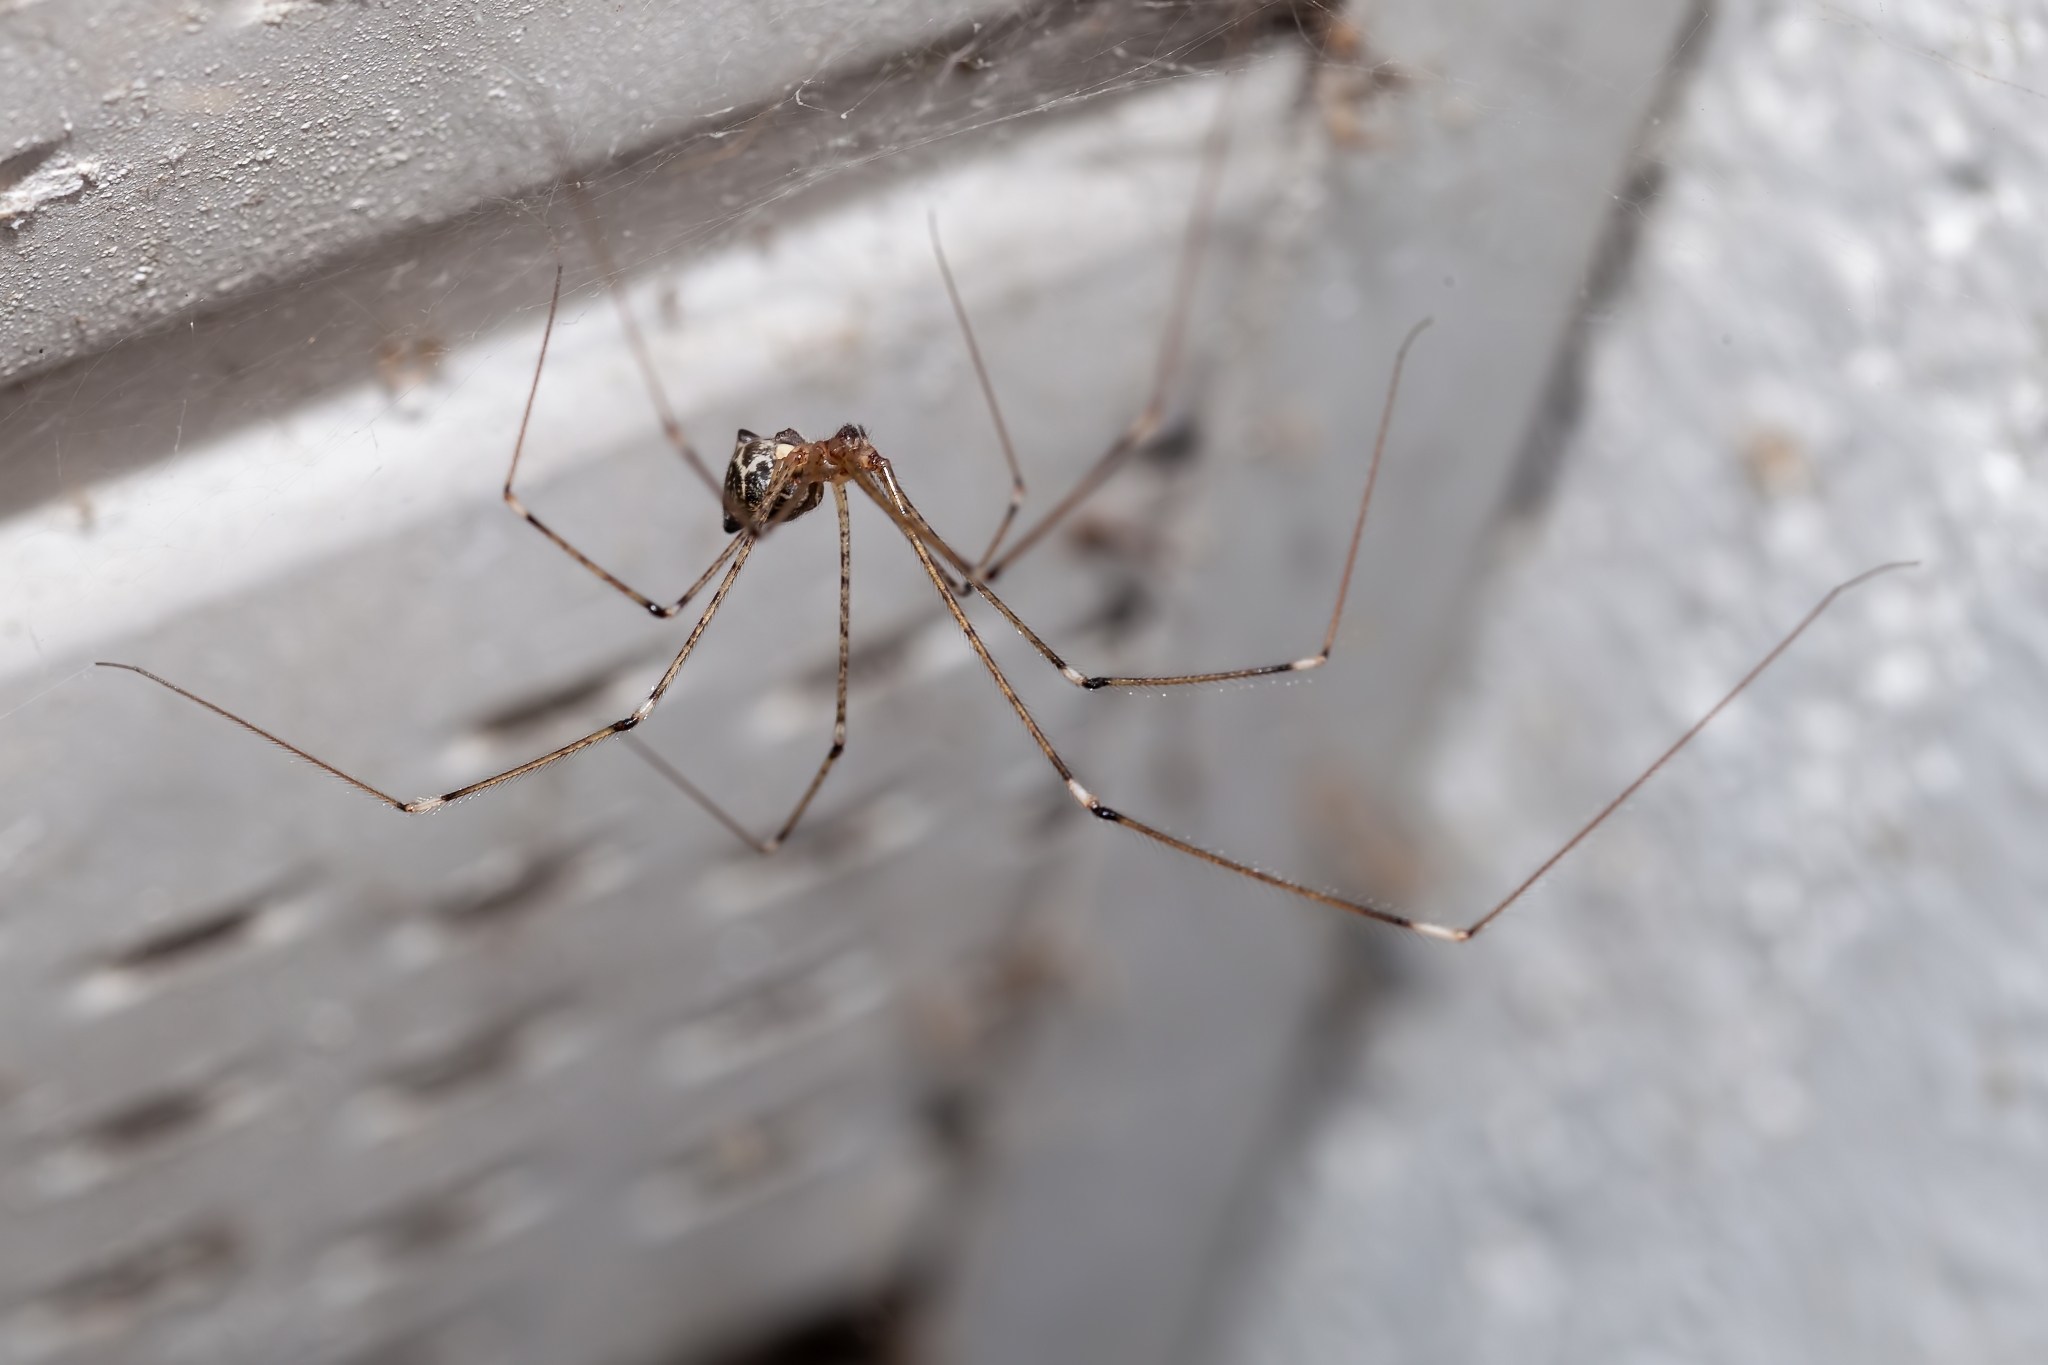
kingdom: Animalia
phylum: Arthropoda
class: Arachnida
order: Araneae
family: Pholcidae
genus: Crossopriza
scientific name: Crossopriza lyoni
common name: Cellar spiders
